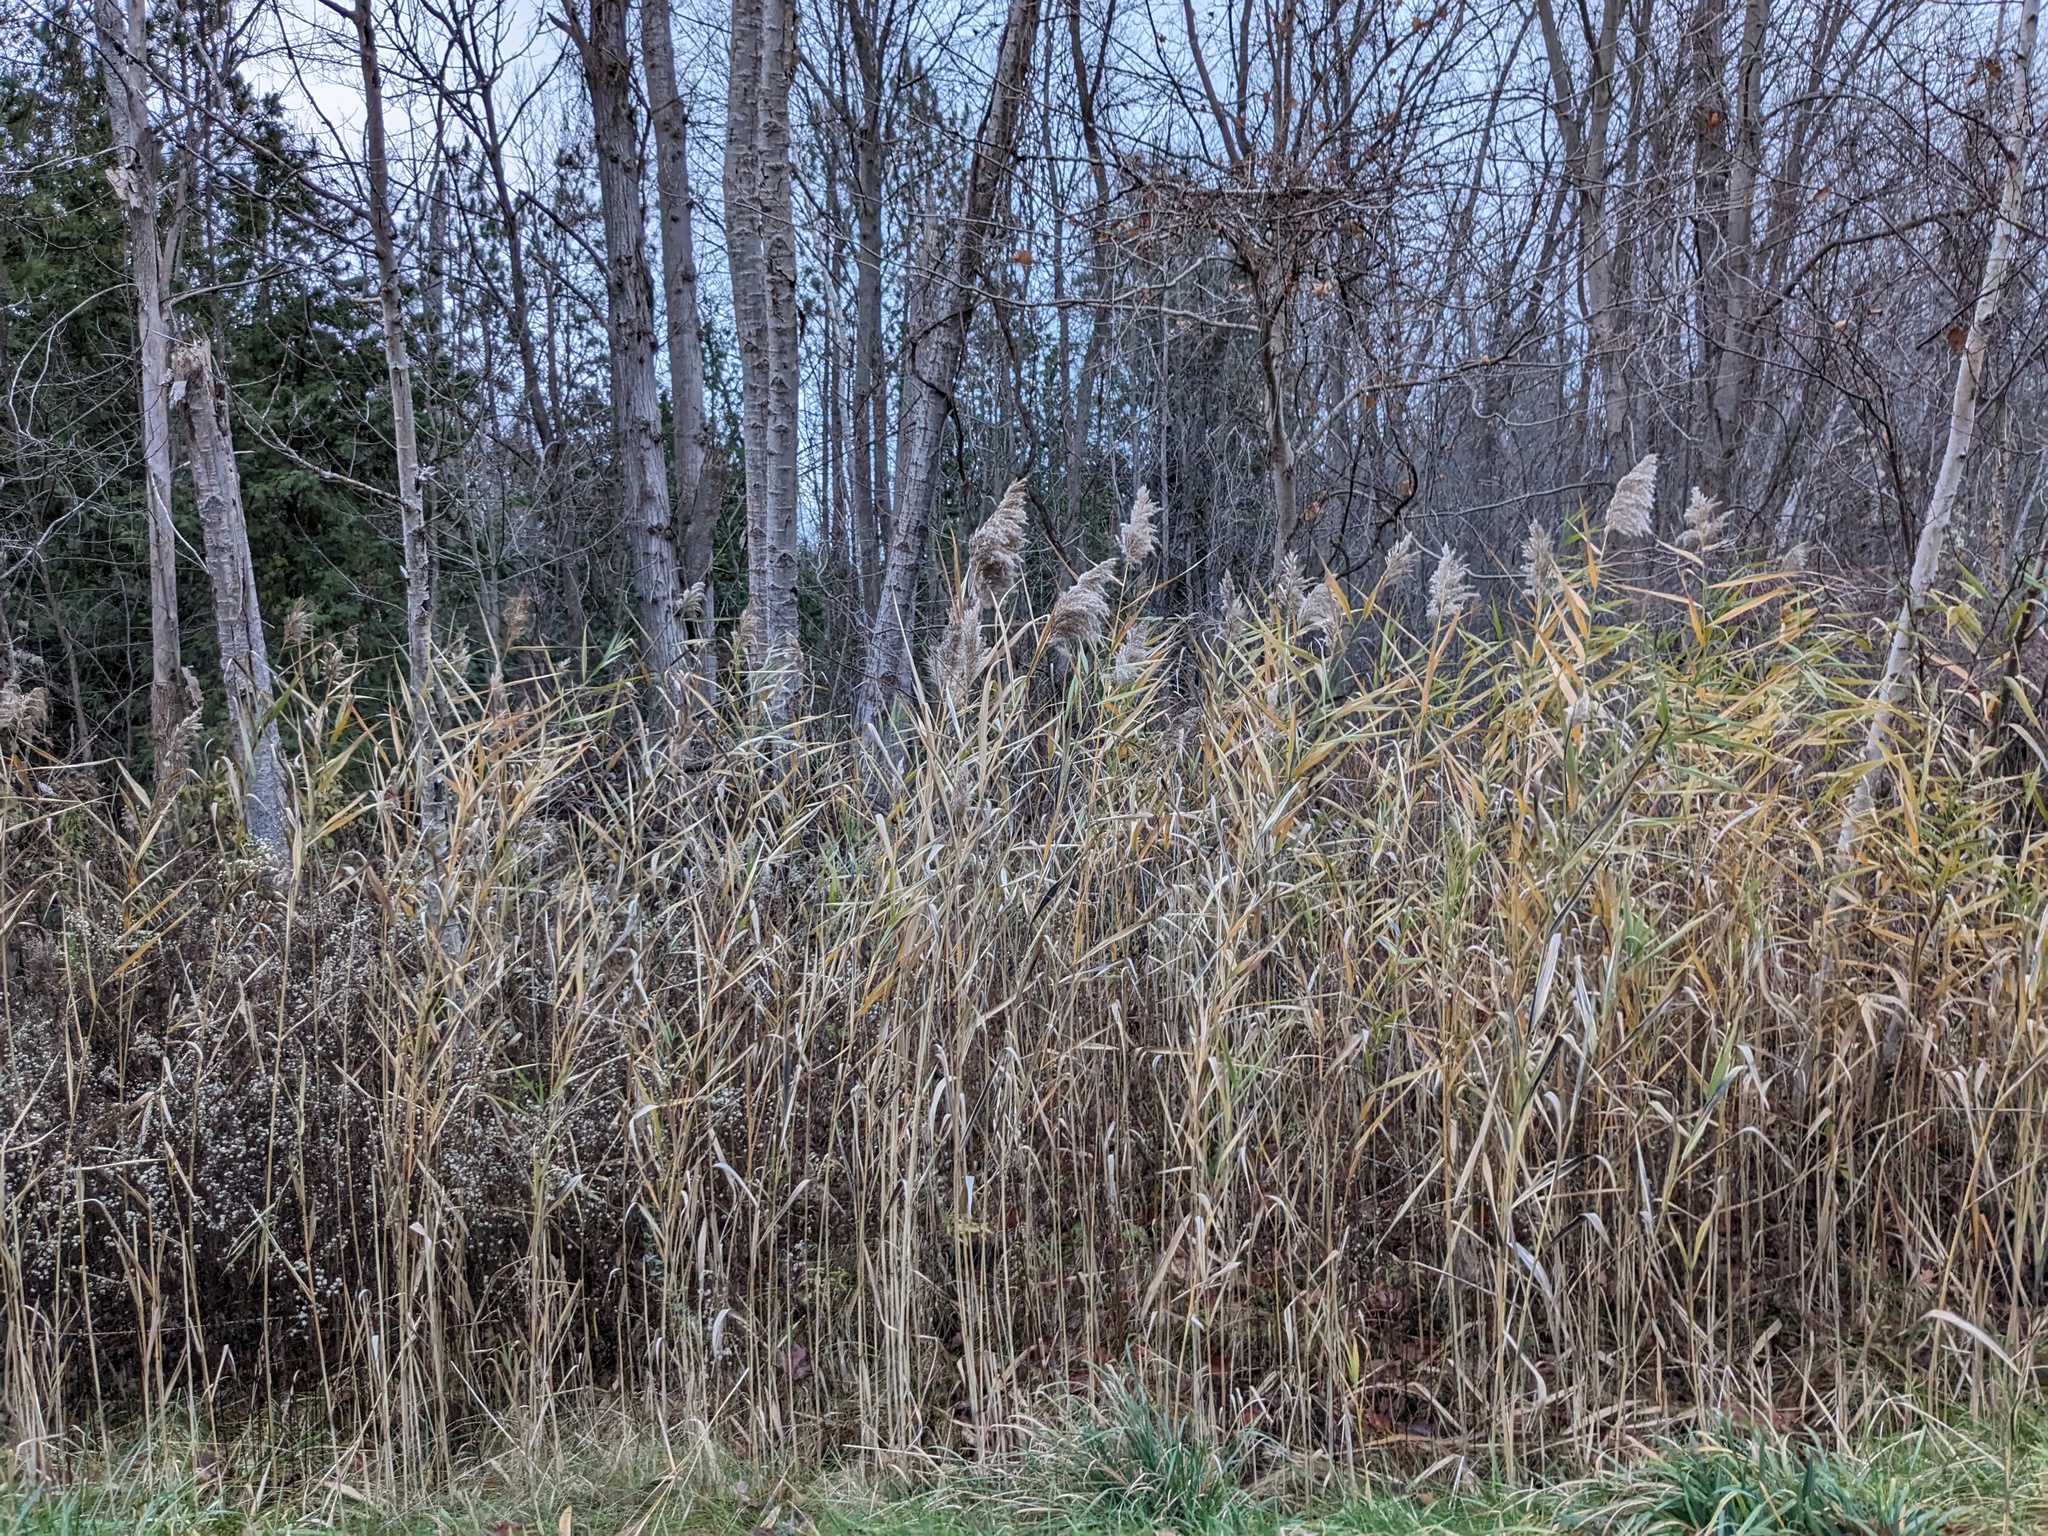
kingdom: Plantae
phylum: Tracheophyta
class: Liliopsida
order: Poales
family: Poaceae
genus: Phragmites
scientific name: Phragmites australis
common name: Common reed
